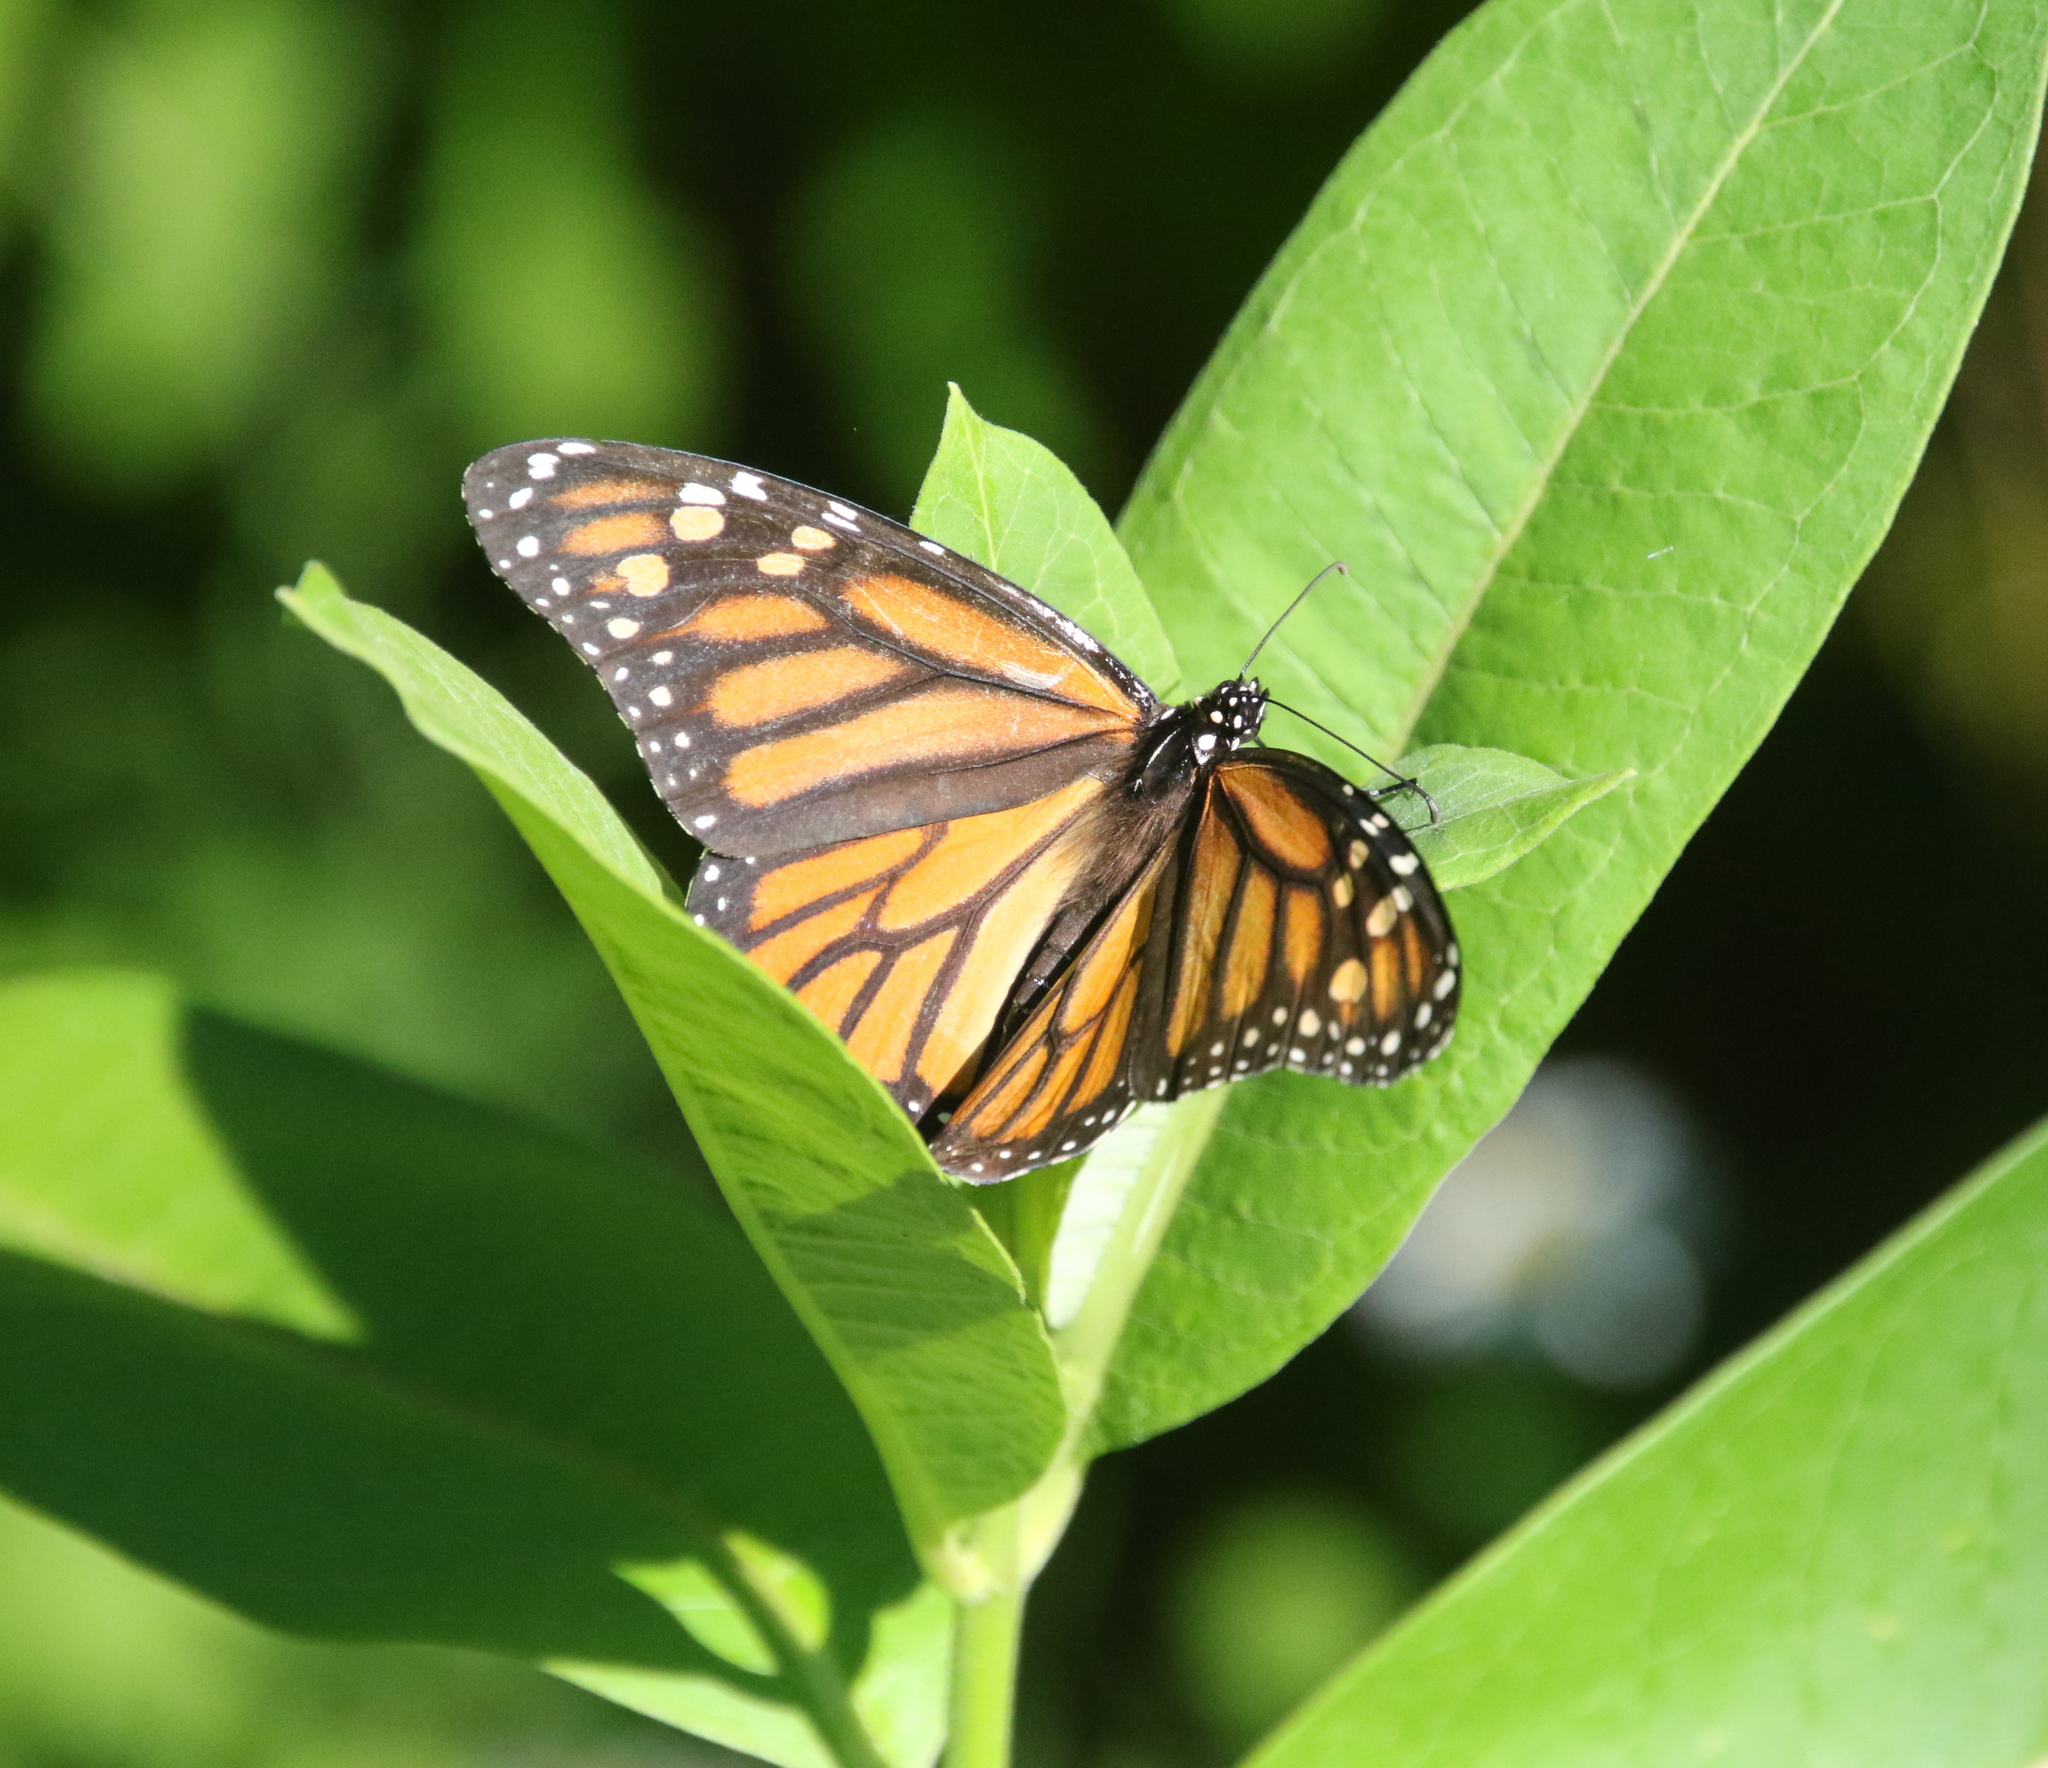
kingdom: Animalia
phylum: Arthropoda
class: Insecta
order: Lepidoptera
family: Nymphalidae
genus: Danaus
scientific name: Danaus plexippus
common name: Monarch
